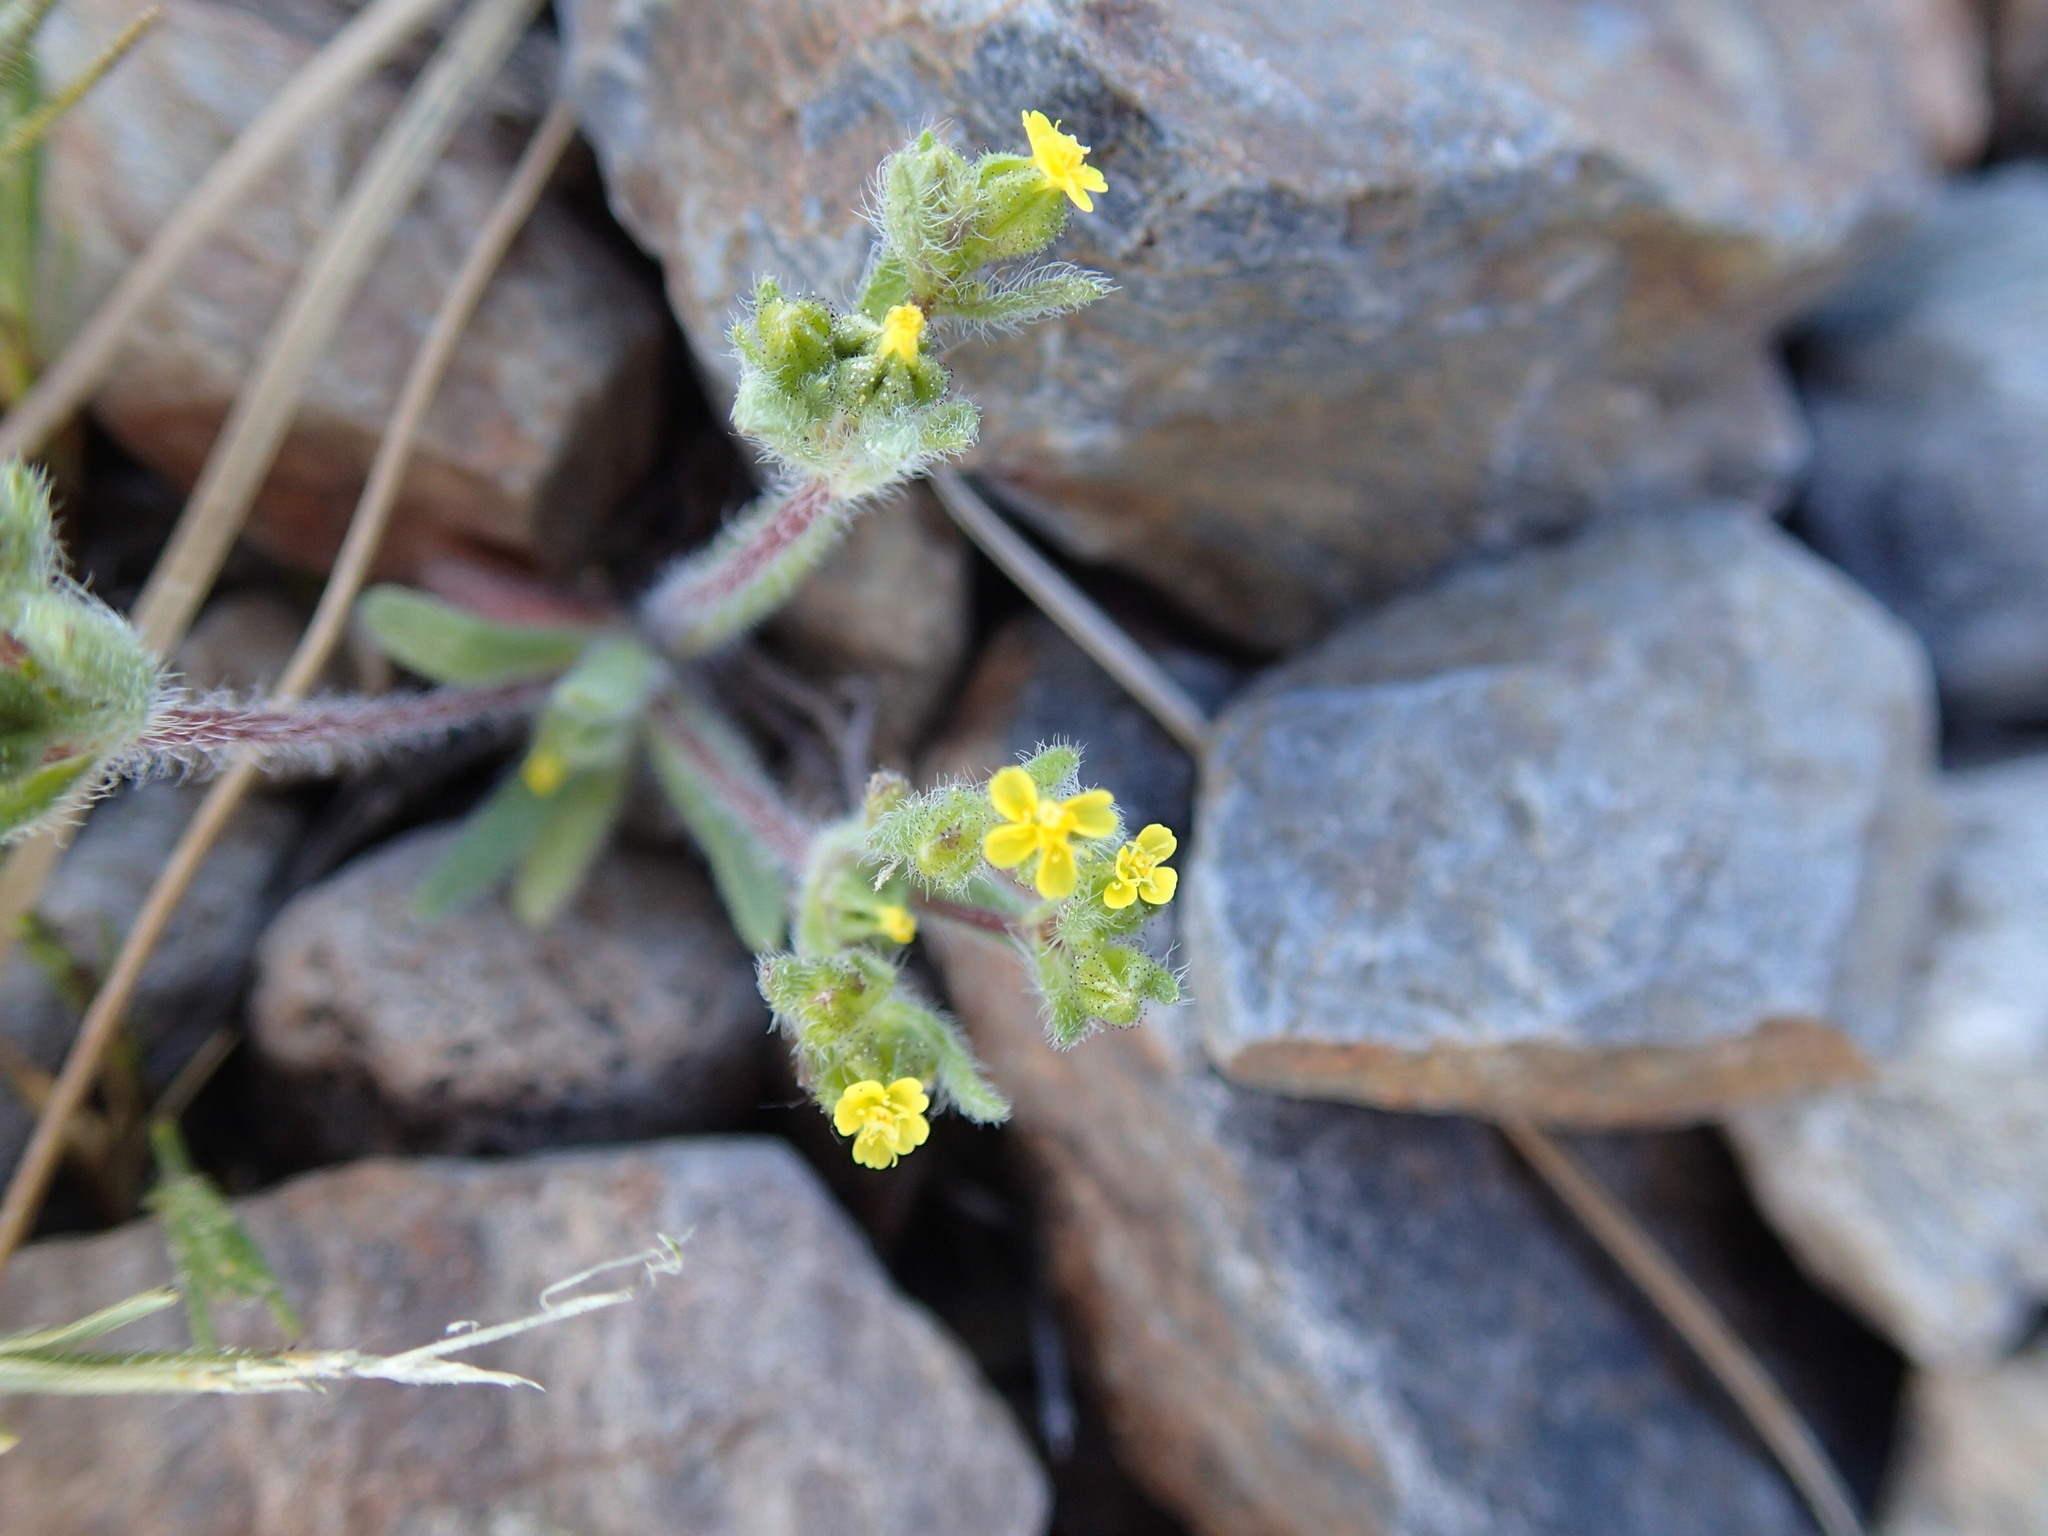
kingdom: Plantae
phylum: Tracheophyta
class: Magnoliopsida
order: Asterales
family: Asteraceae
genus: Hemizonella
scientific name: Hemizonella minima
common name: Opposite-leaved tarweed
